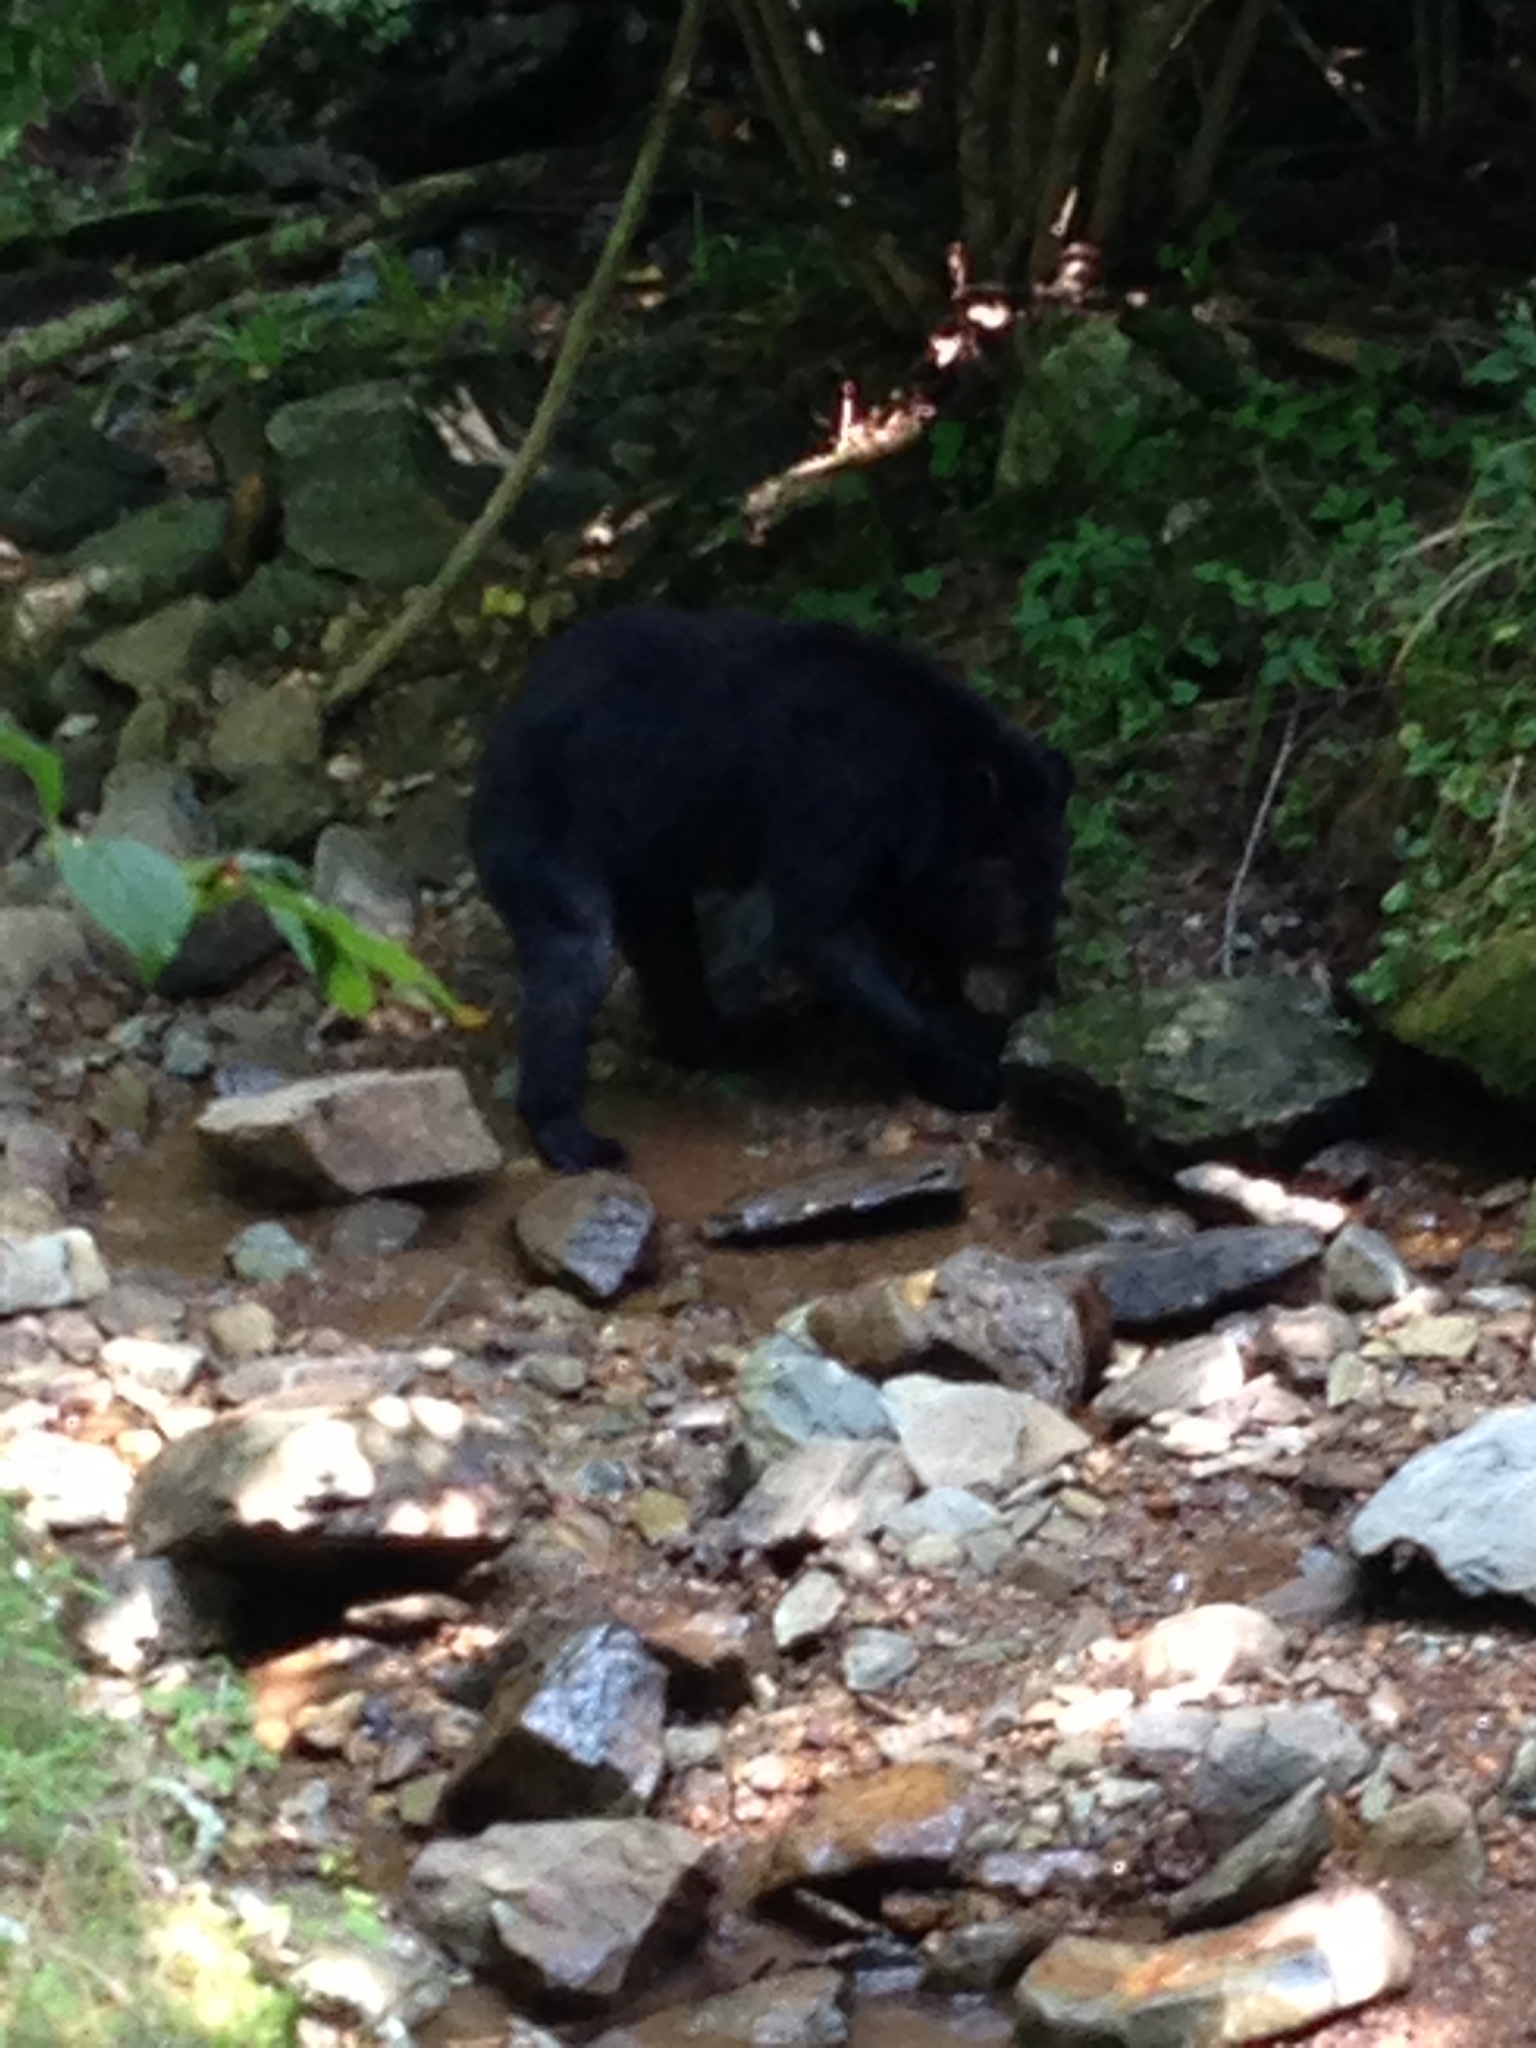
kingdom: Animalia
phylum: Chordata
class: Mammalia
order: Carnivora
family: Ursidae
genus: Ursus
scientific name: Ursus americanus
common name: American black bear
